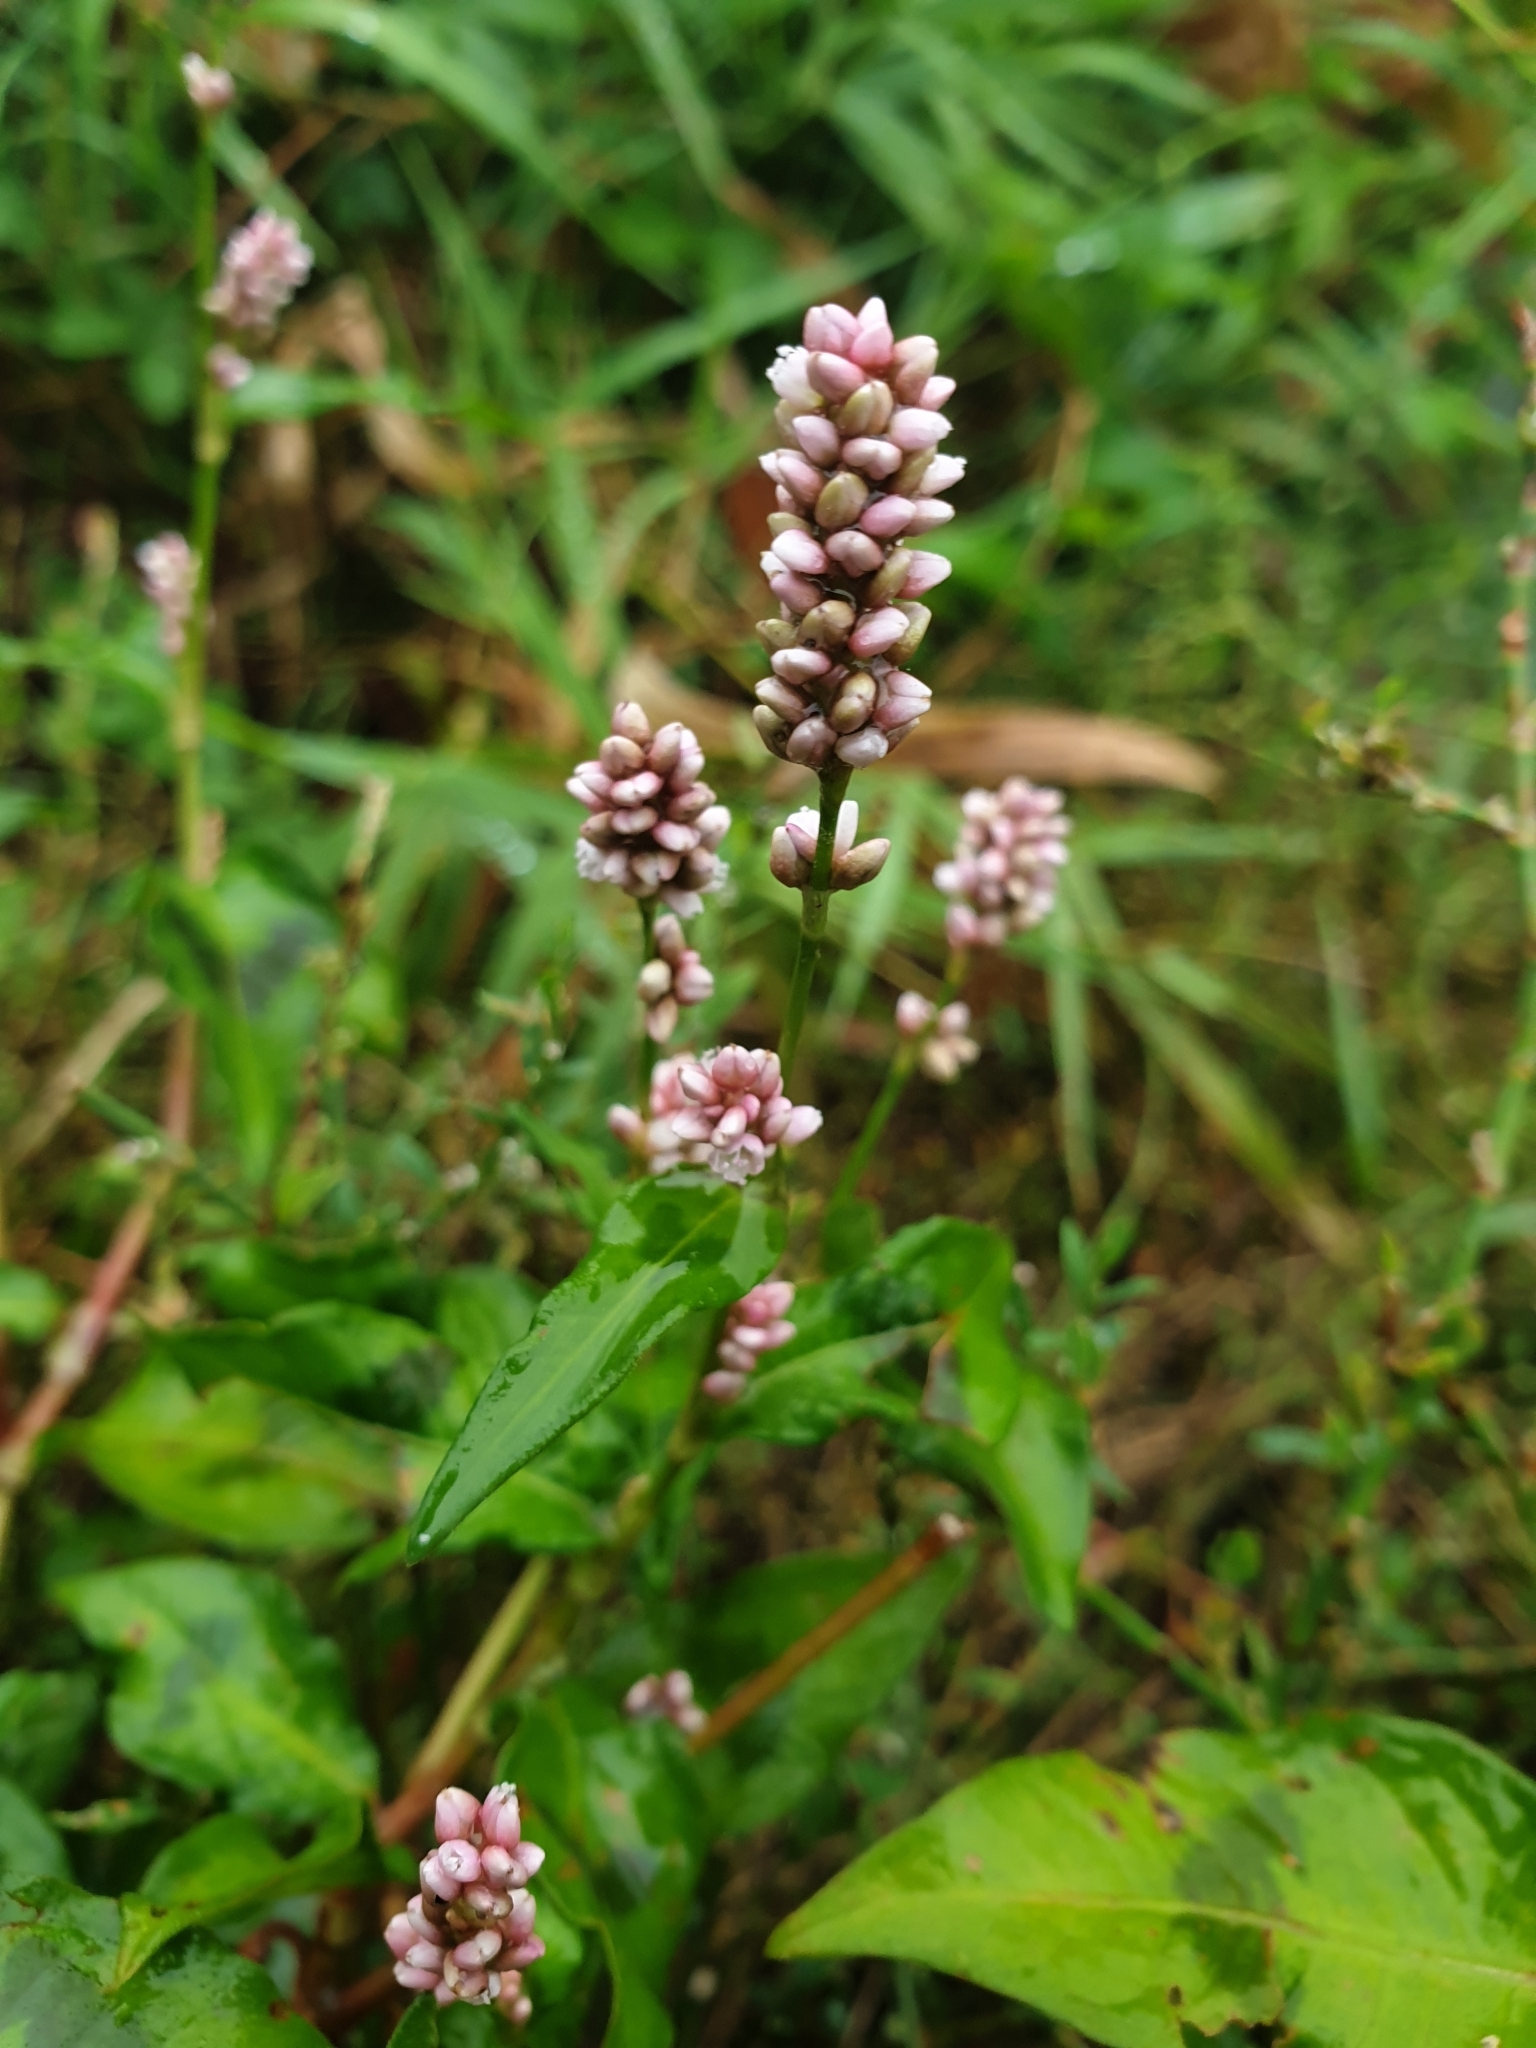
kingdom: Plantae
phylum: Tracheophyta
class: Magnoliopsida
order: Caryophyllales
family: Polygonaceae
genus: Persicaria
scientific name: Persicaria maculosa
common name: Redshank
